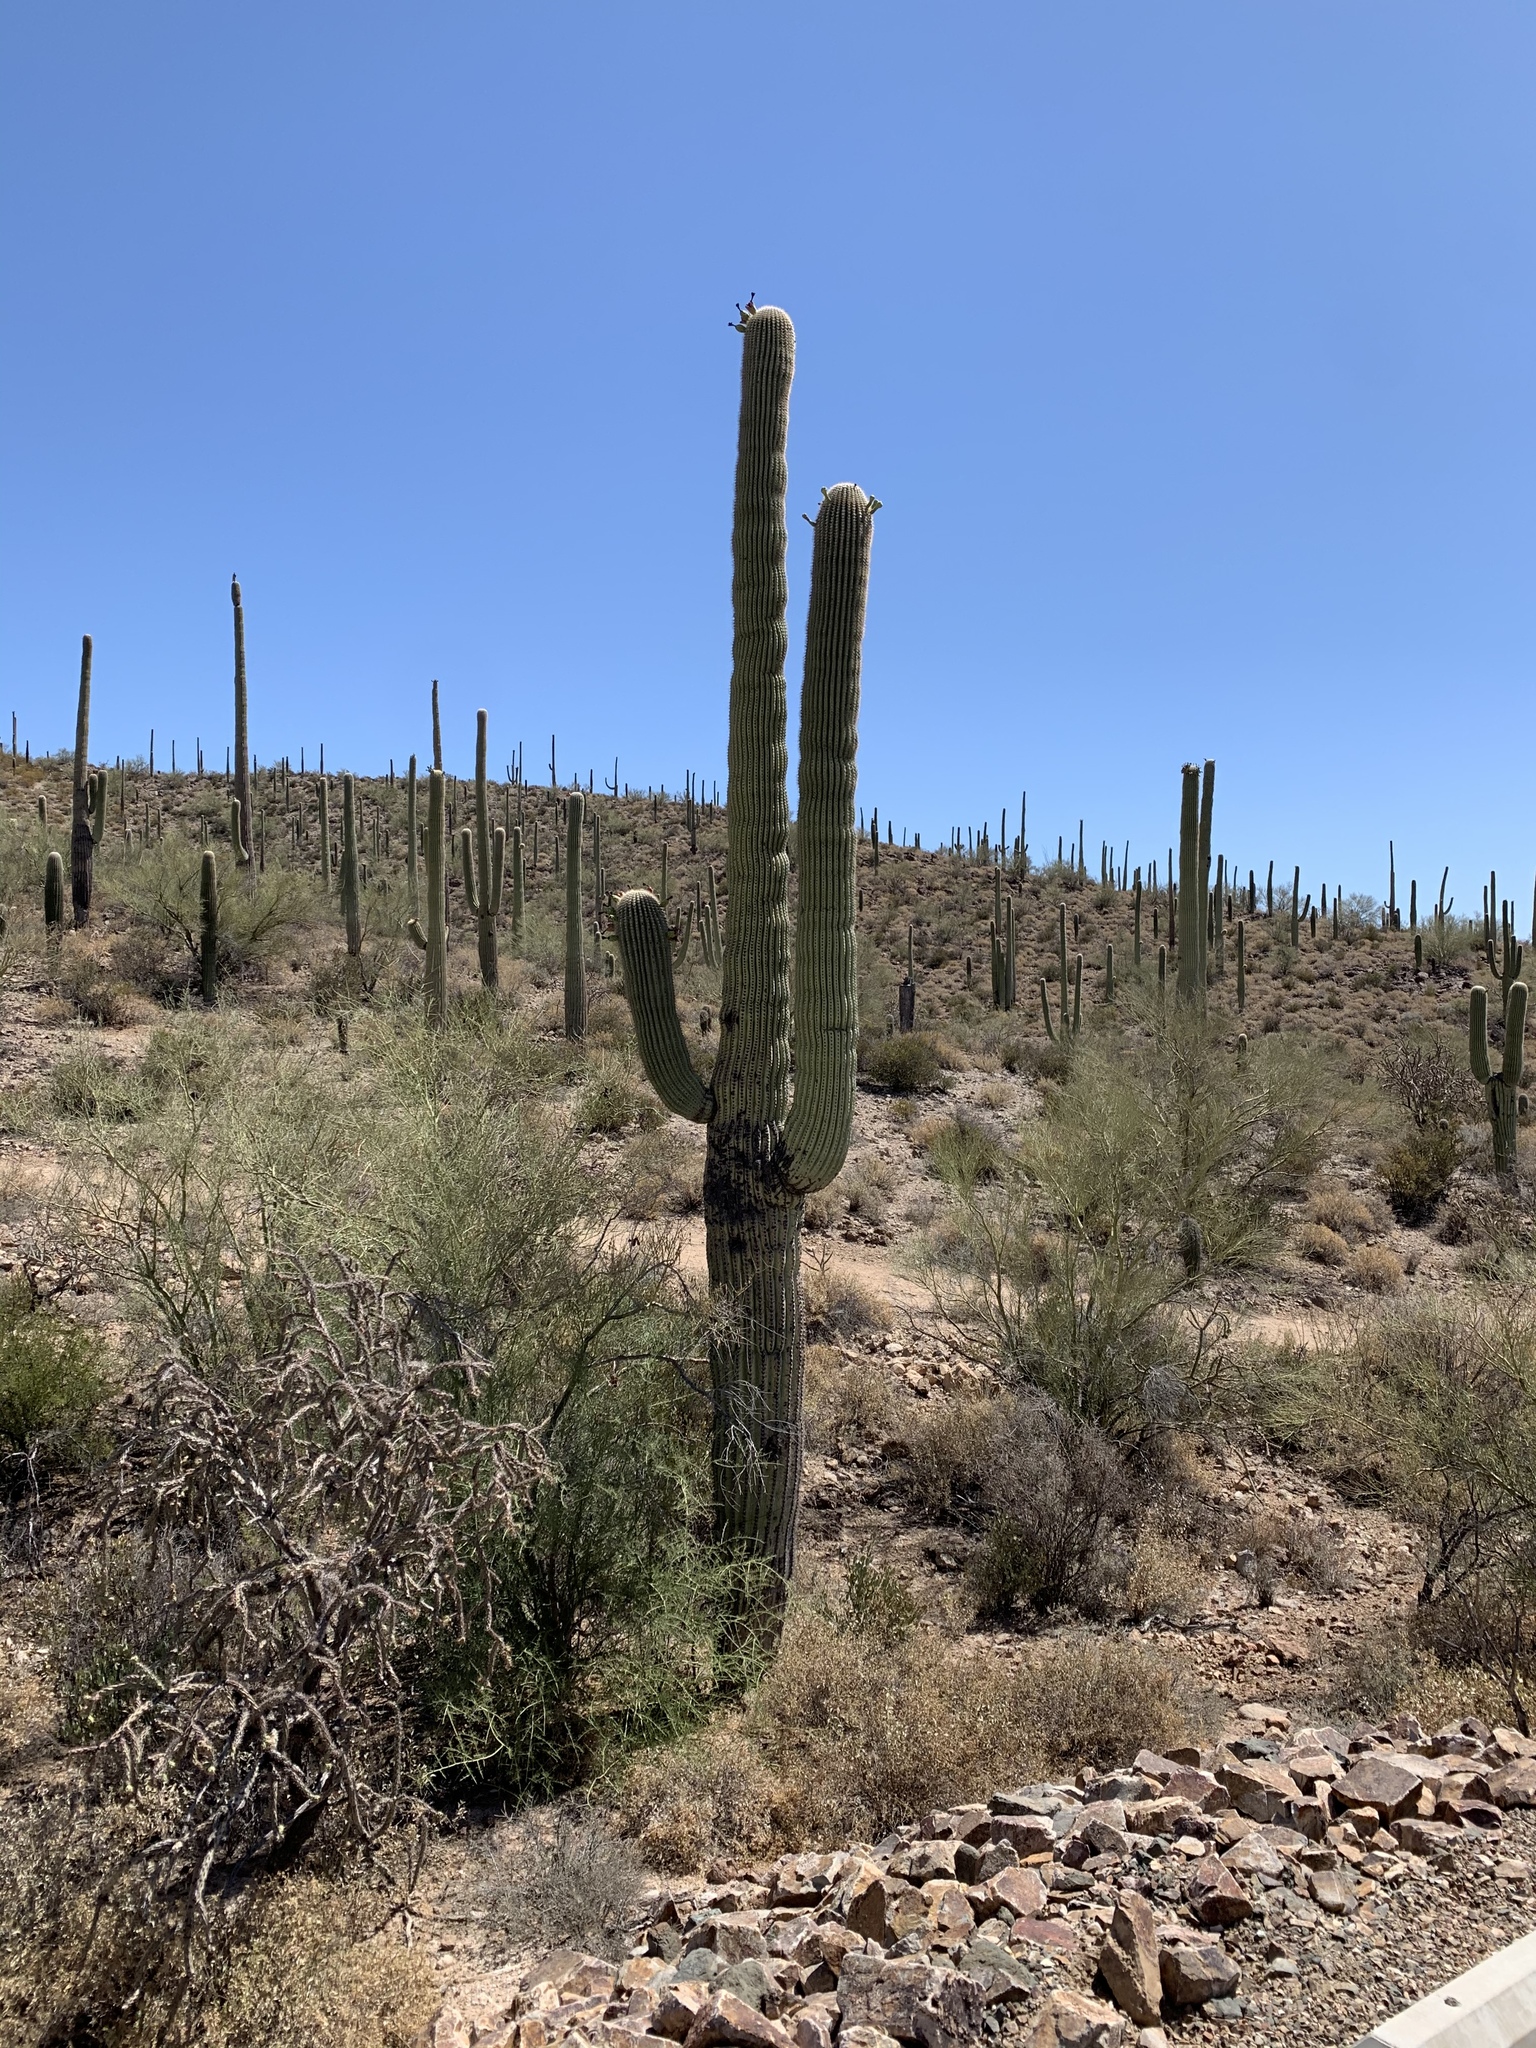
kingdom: Plantae
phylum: Tracheophyta
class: Magnoliopsida
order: Caryophyllales
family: Cactaceae
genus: Carnegiea
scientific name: Carnegiea gigantea
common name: Saguaro
